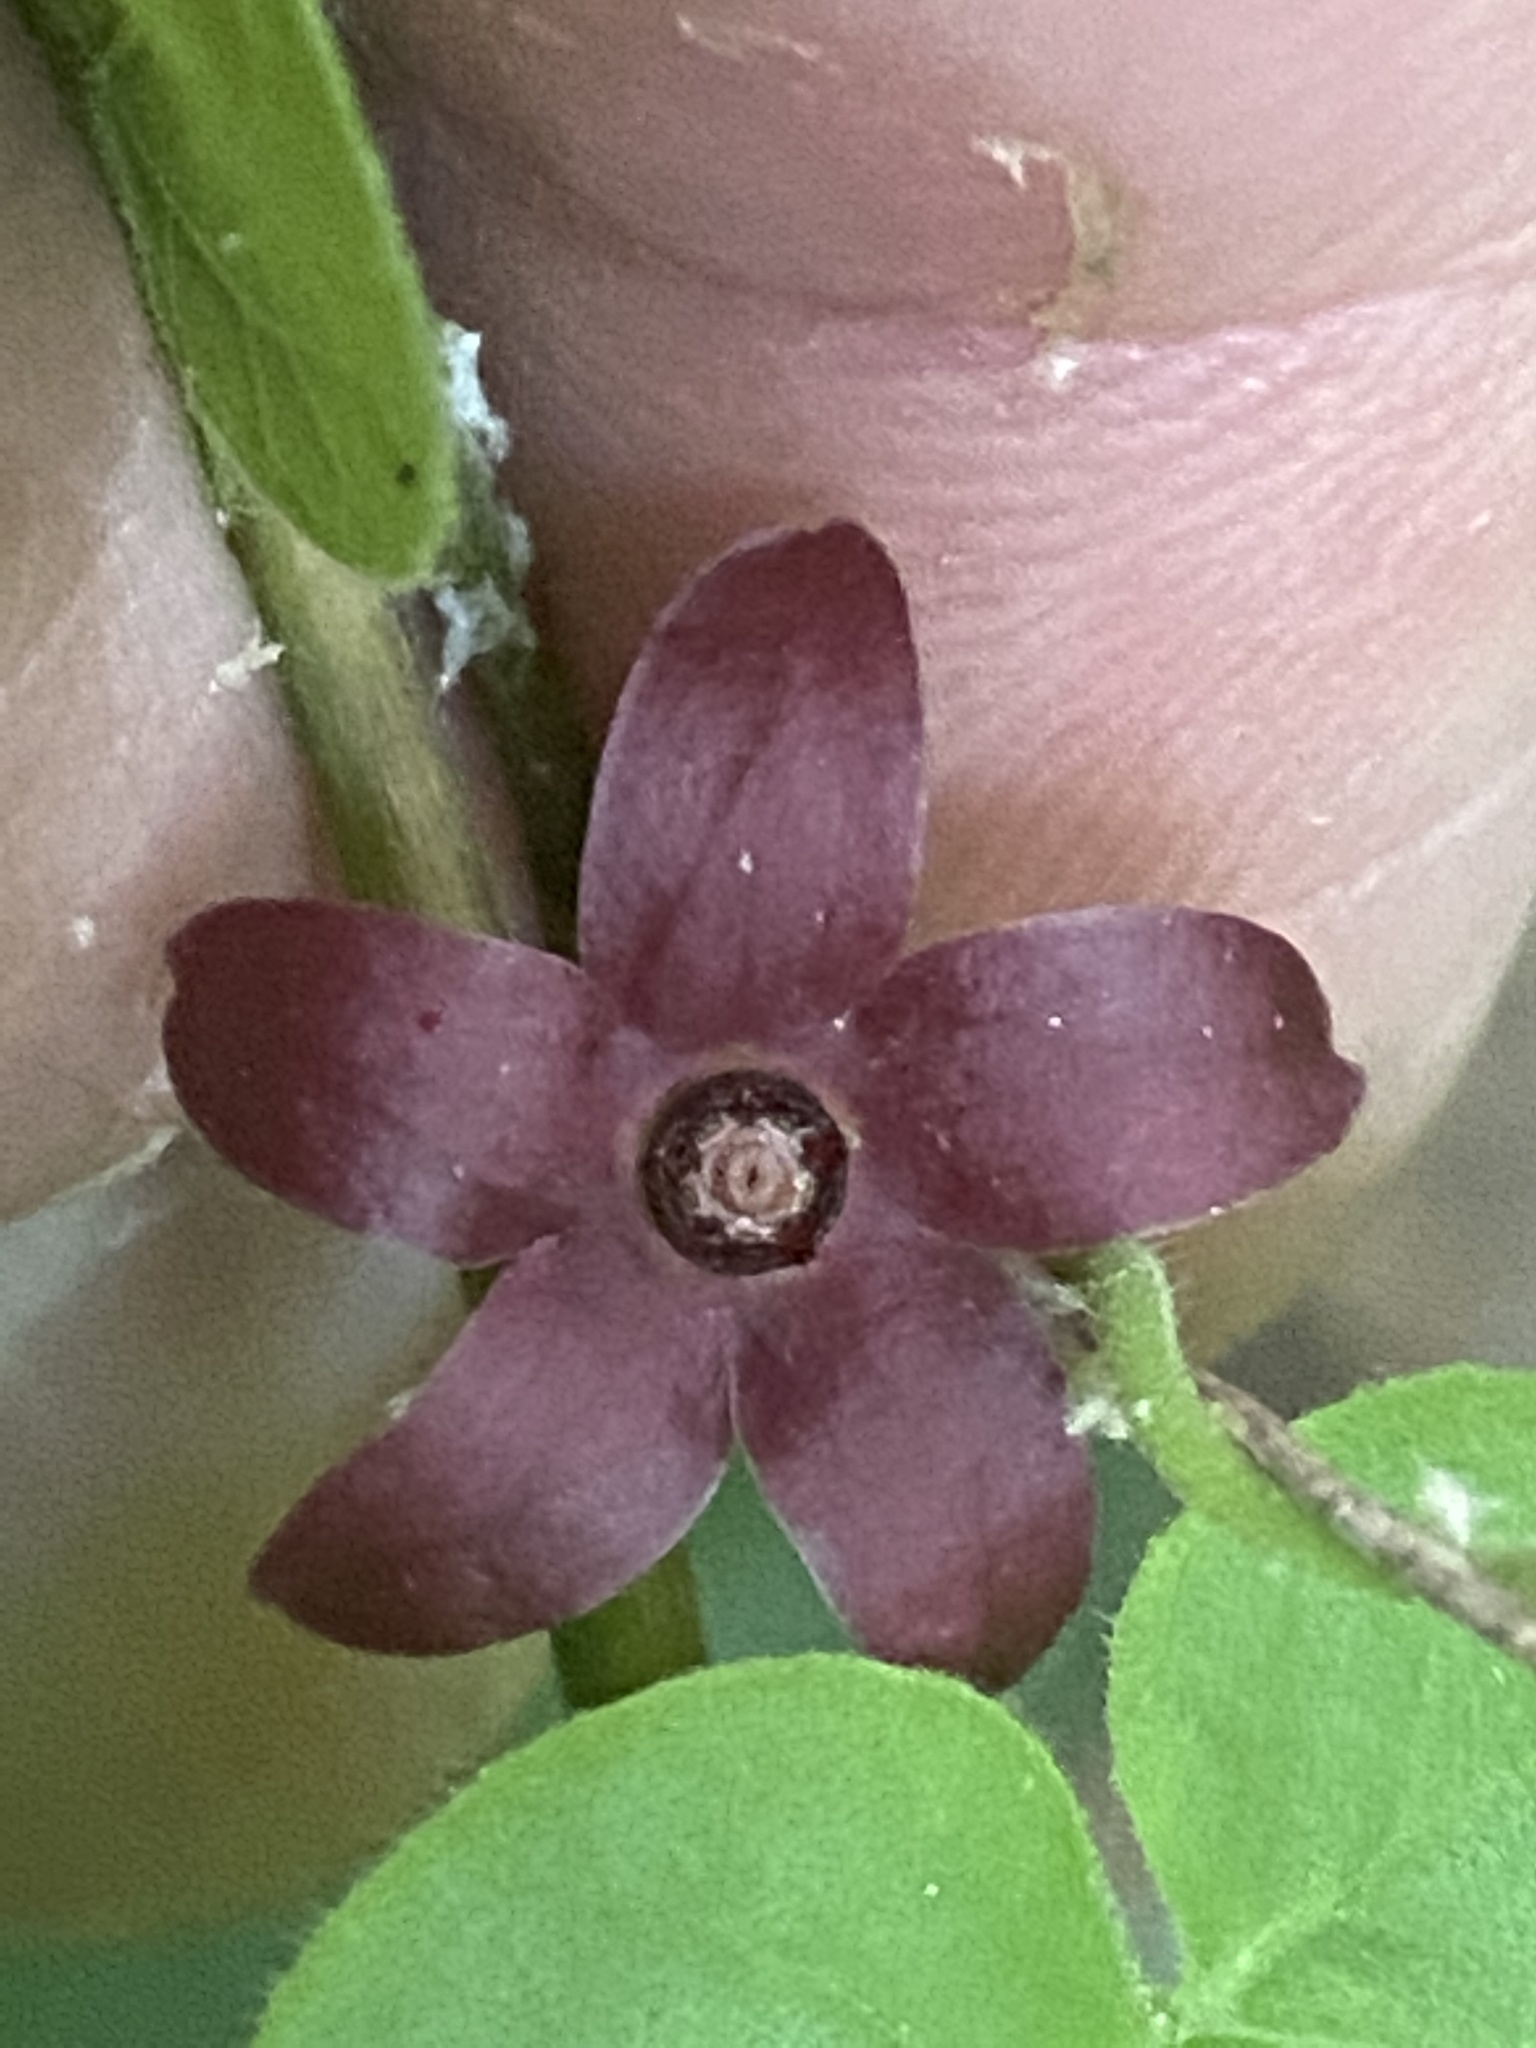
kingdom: Plantae
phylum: Tracheophyta
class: Magnoliopsida
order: Gentianales
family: Apocynaceae
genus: Matelea
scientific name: Matelea carolinensis
